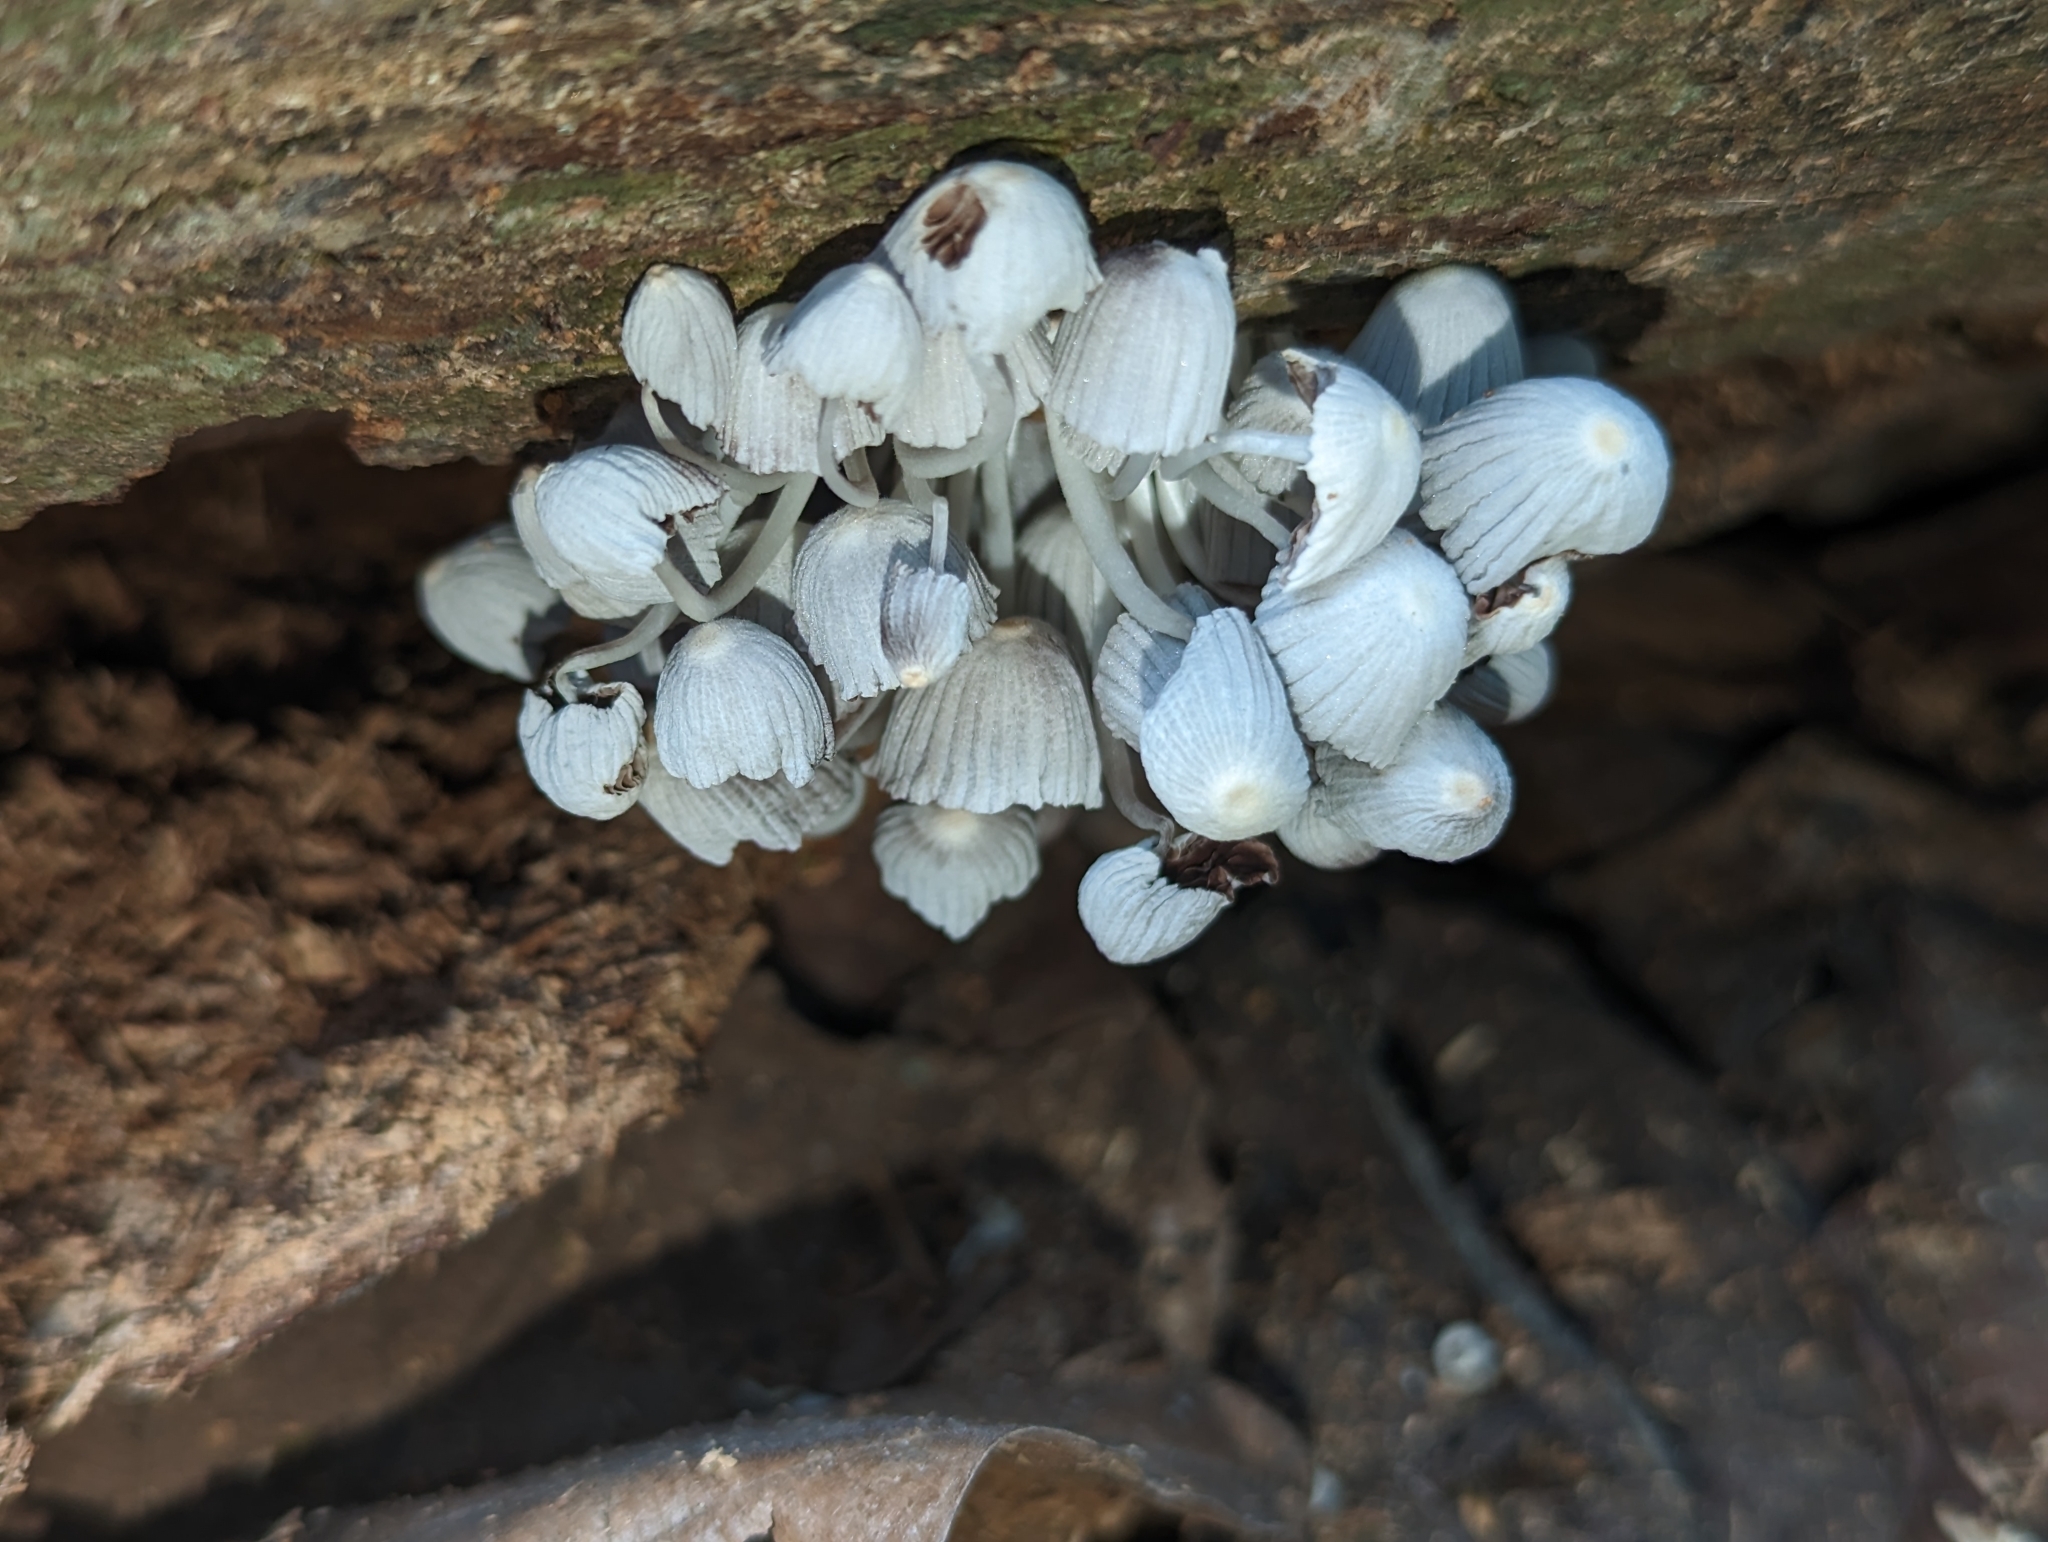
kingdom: Fungi
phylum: Basidiomycota
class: Agaricomycetes
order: Agaricales
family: Psathyrellaceae
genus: Coprinellus
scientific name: Coprinellus disseminatus
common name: Fairies' bonnets
